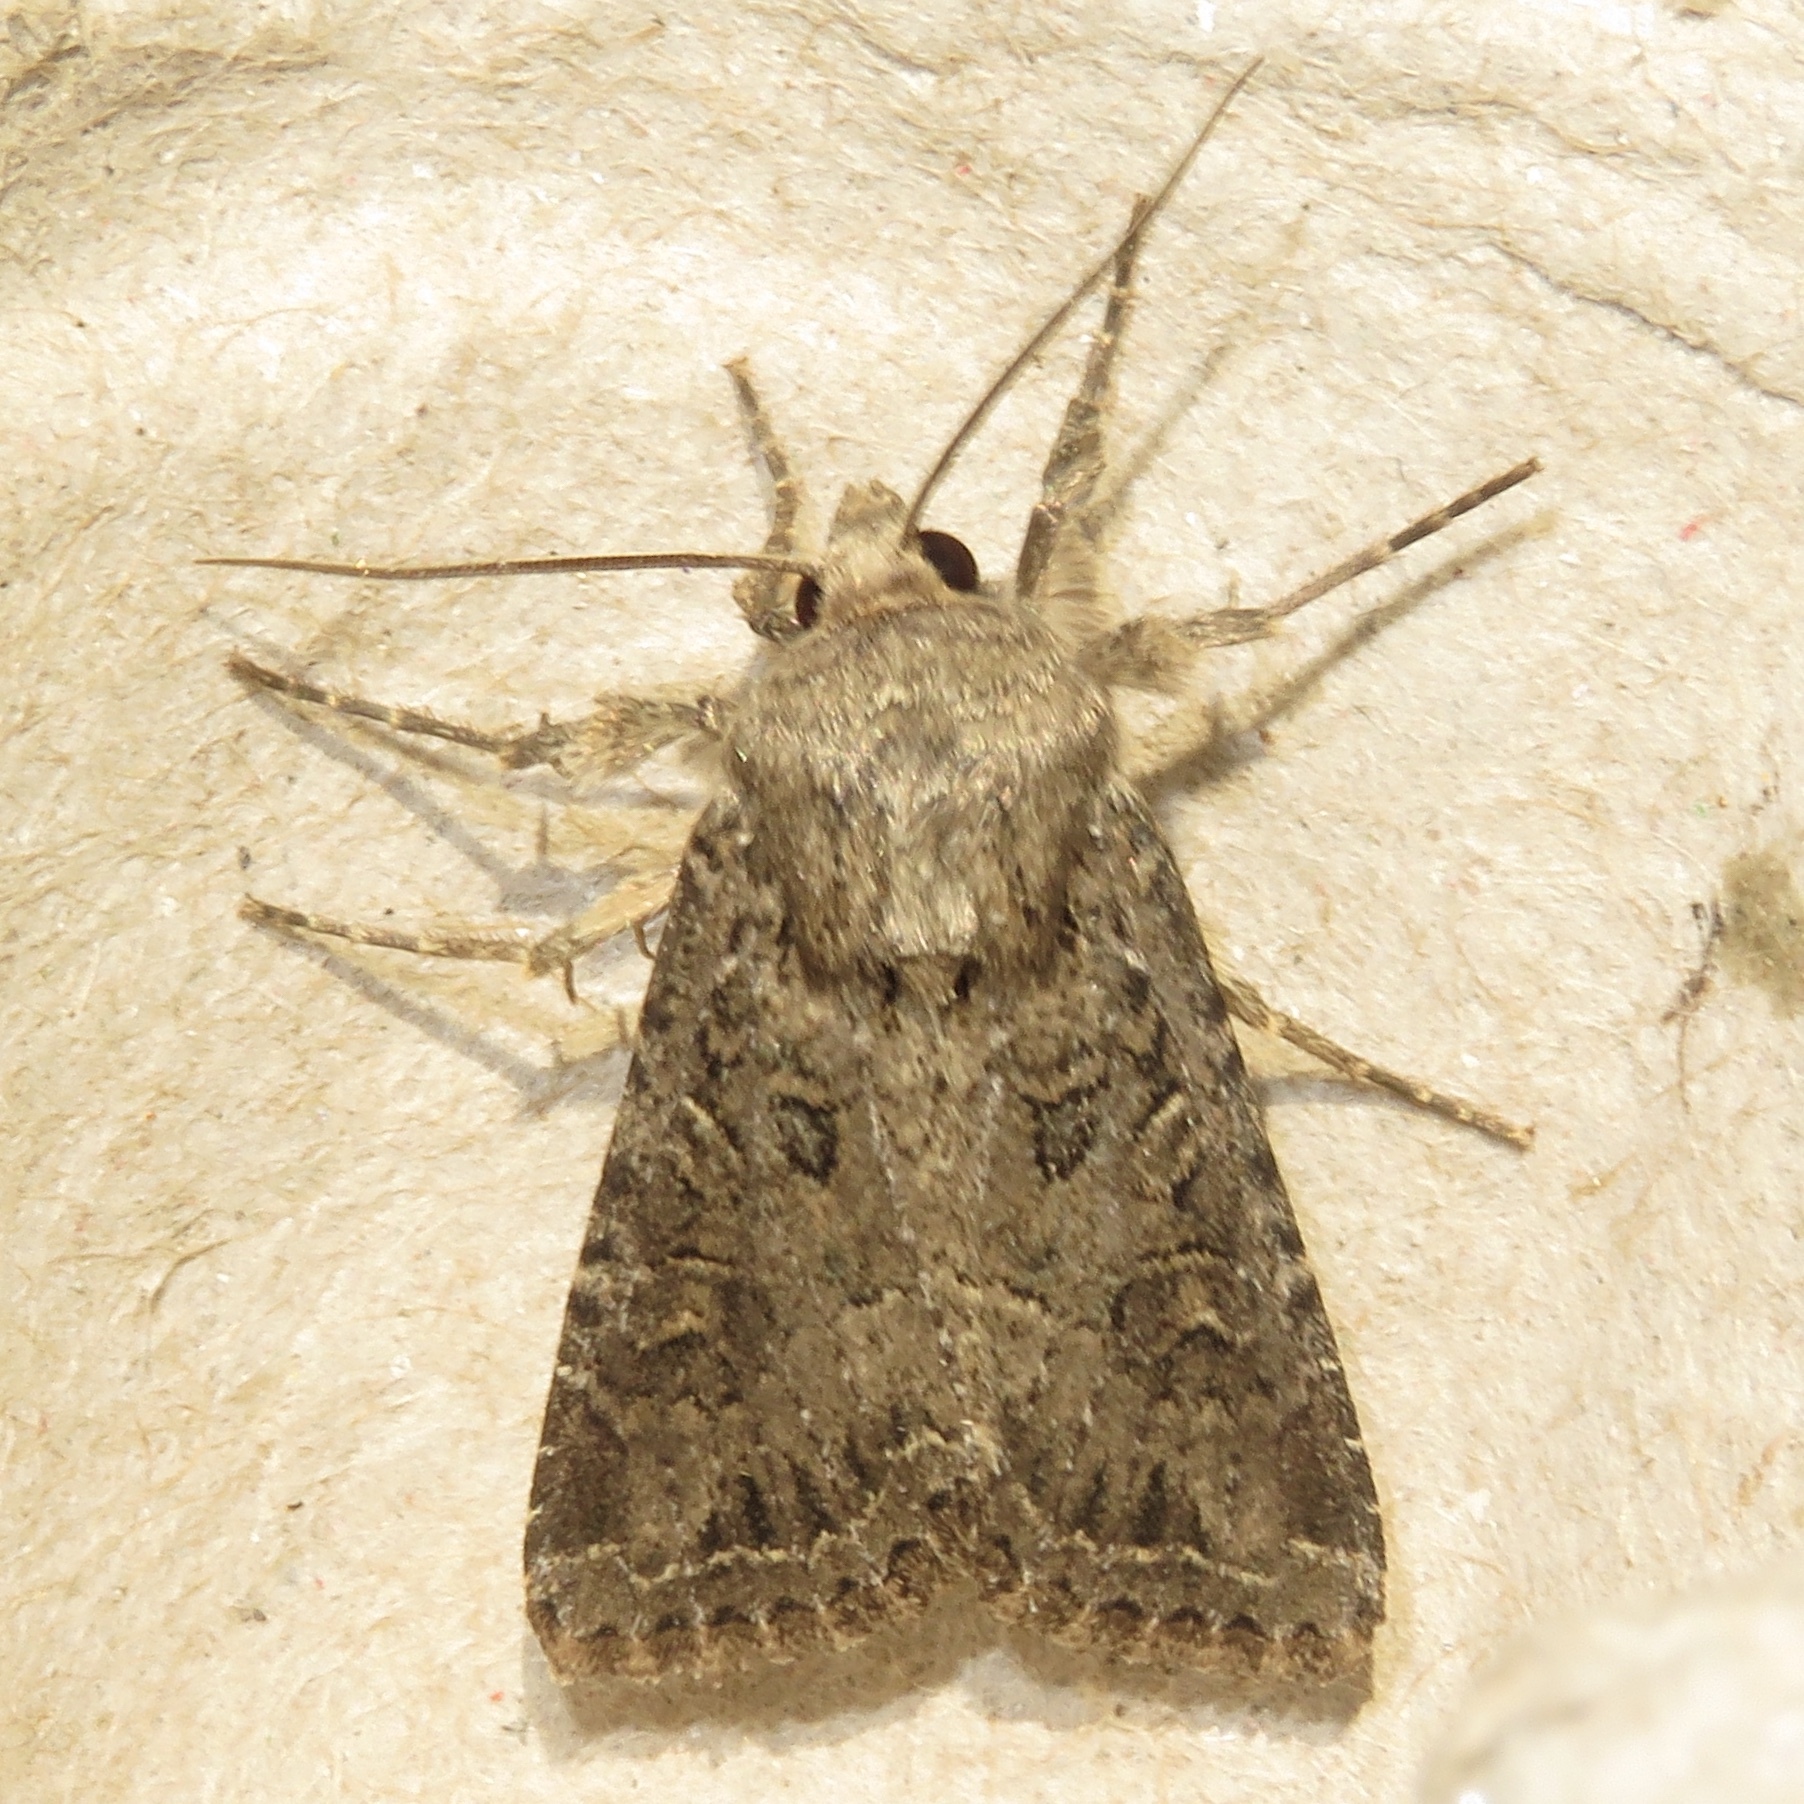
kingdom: Animalia
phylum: Arthropoda
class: Insecta
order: Lepidoptera
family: Noctuidae
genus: Apamea
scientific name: Apamea devastator
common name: Glassy cutworm
